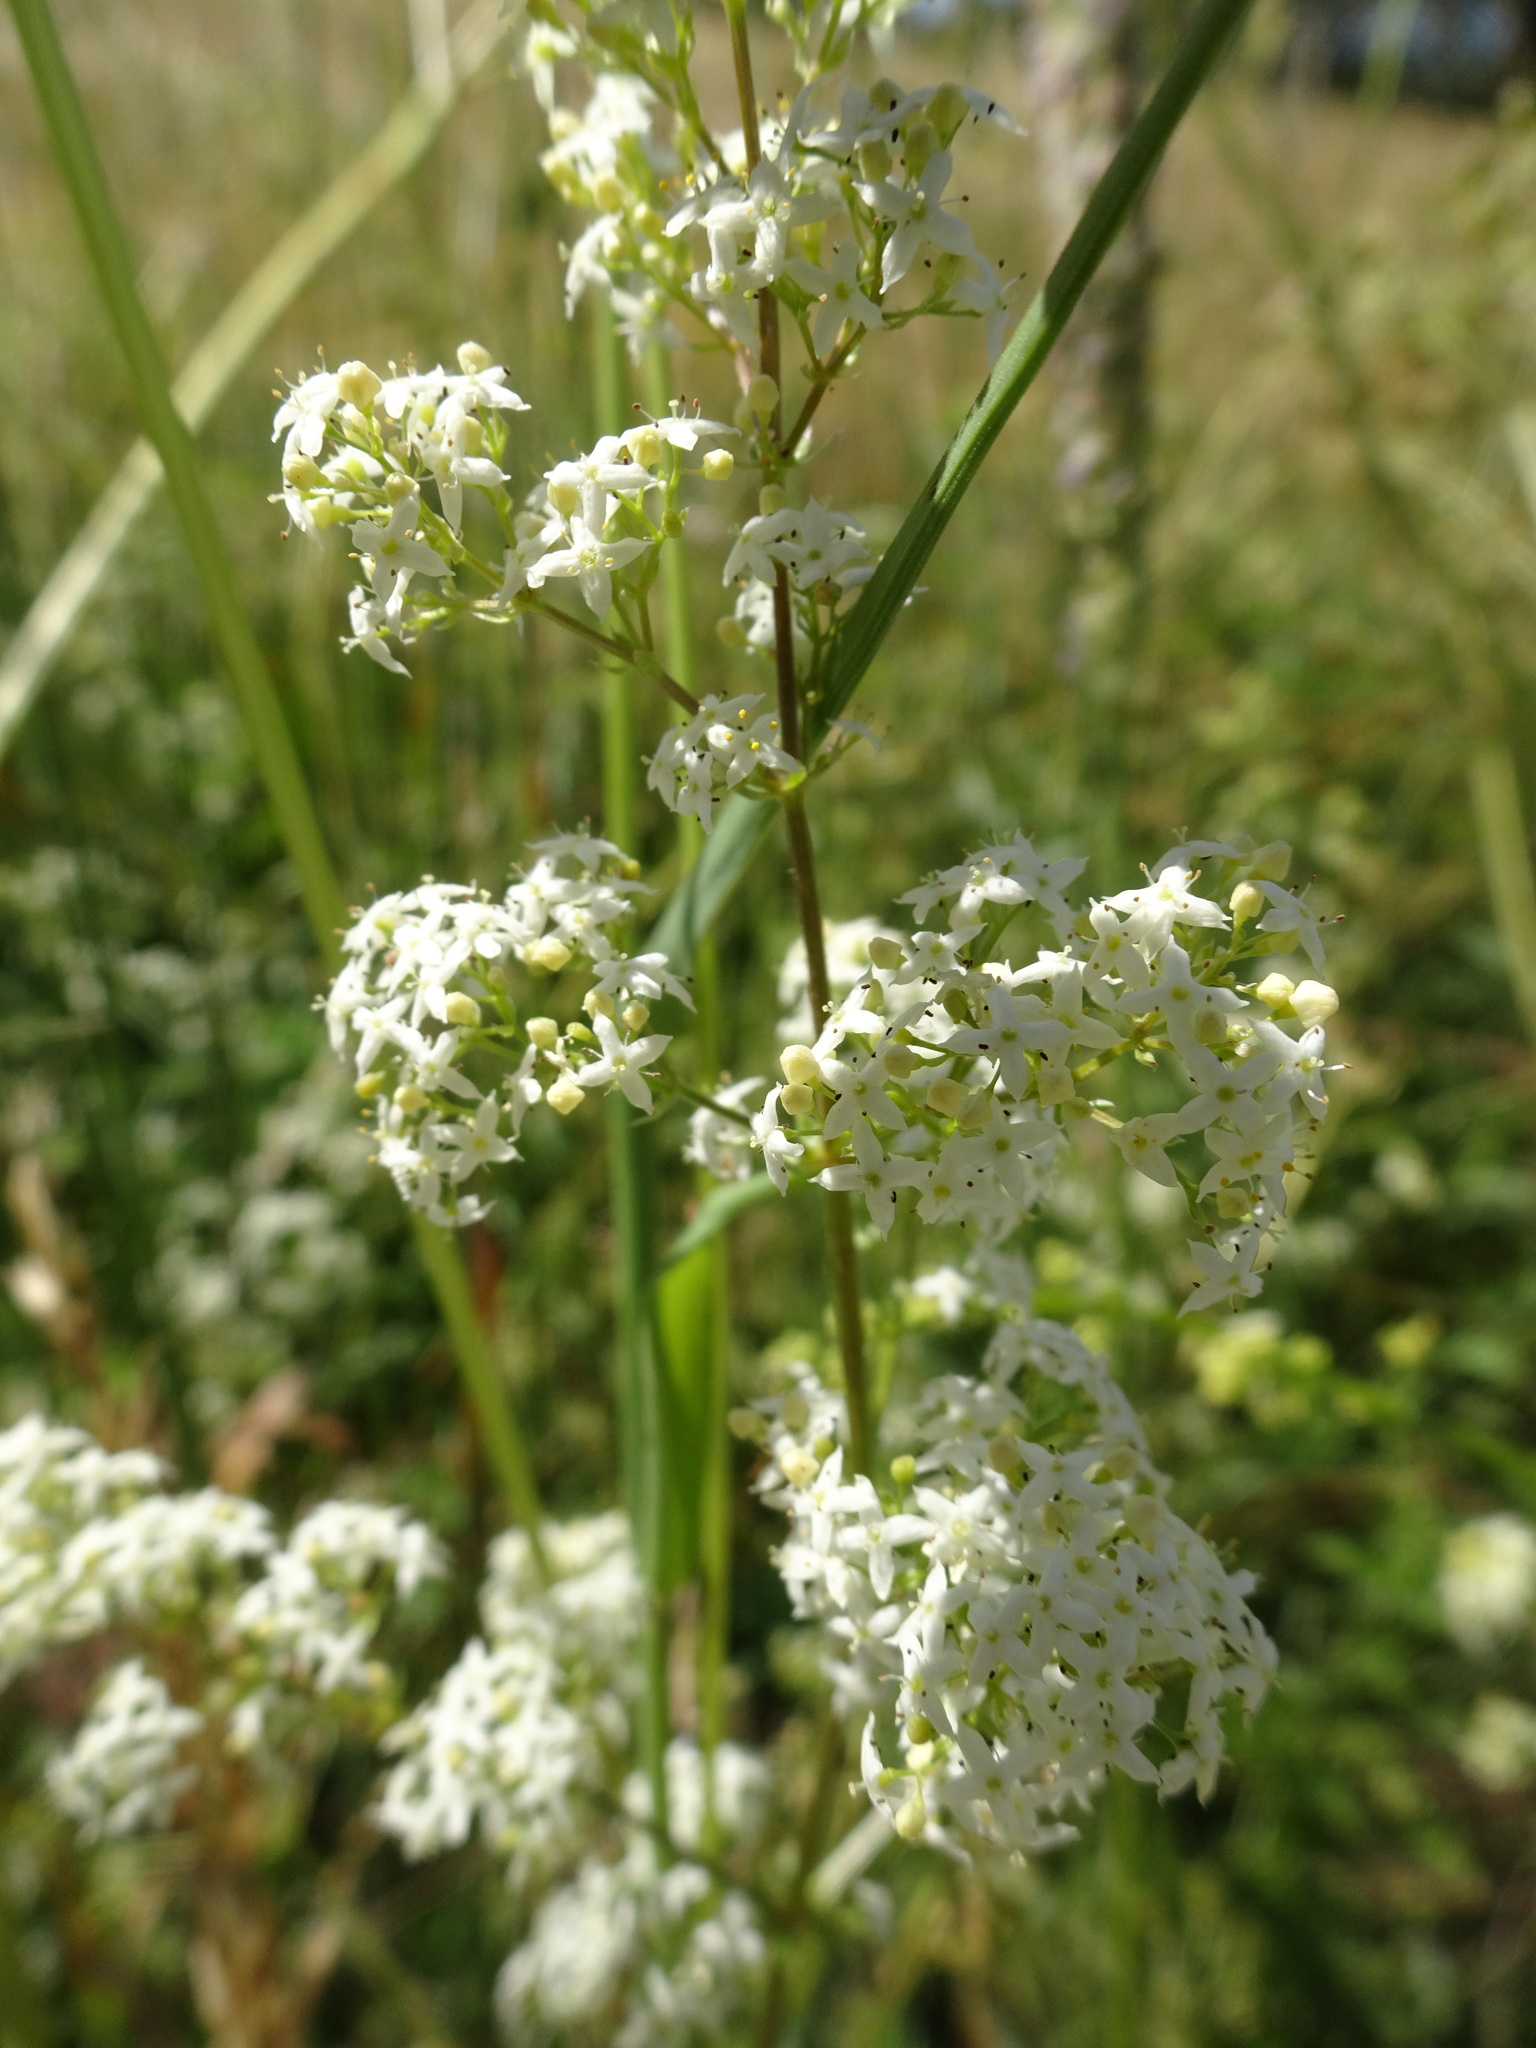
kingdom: Plantae
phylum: Tracheophyta
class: Magnoliopsida
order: Gentianales
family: Rubiaceae
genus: Galium
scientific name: Galium album
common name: White bedstraw
